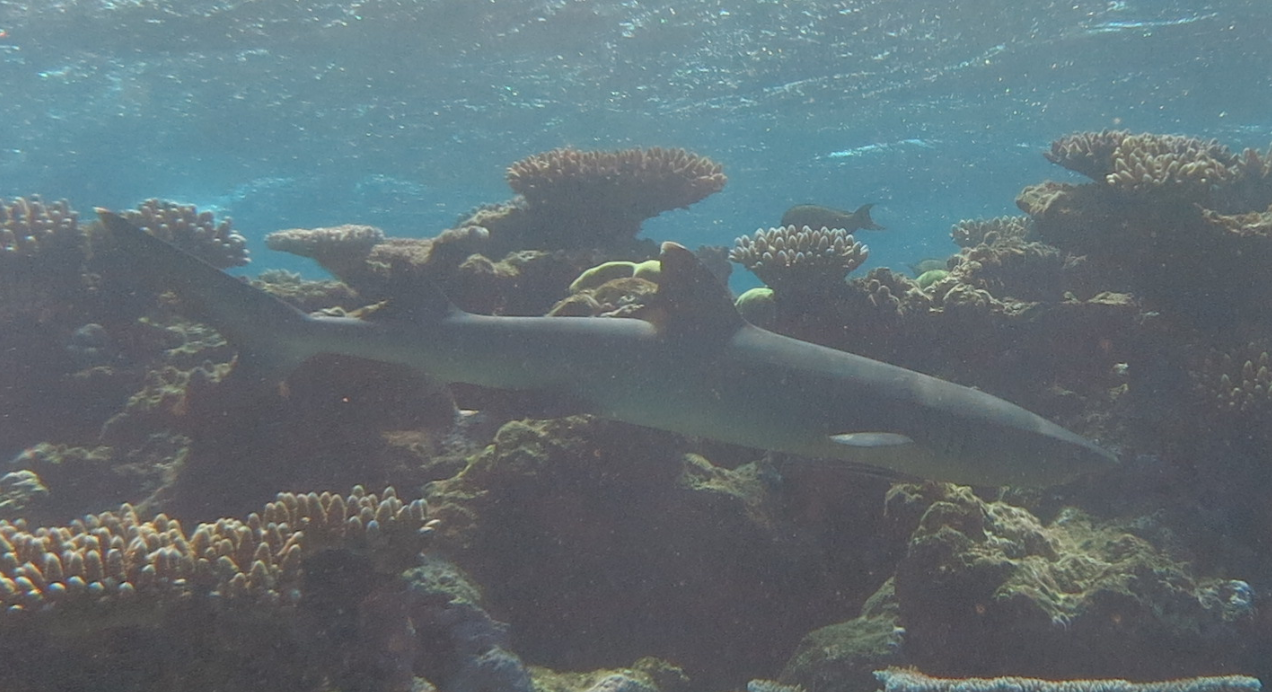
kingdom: Animalia
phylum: Chordata
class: Elasmobranchii
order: Carcharhiniformes
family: Carcharhinidae
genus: Triaenodon
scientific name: Triaenodon obesus
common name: Whitetip reef shark
